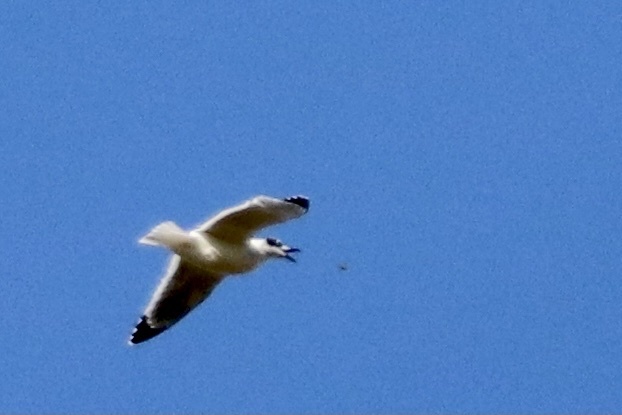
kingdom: Animalia
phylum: Chordata
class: Aves
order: Charadriiformes
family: Laridae
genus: Leucophaeus
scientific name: Leucophaeus pipixcan
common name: Franklin's gull
